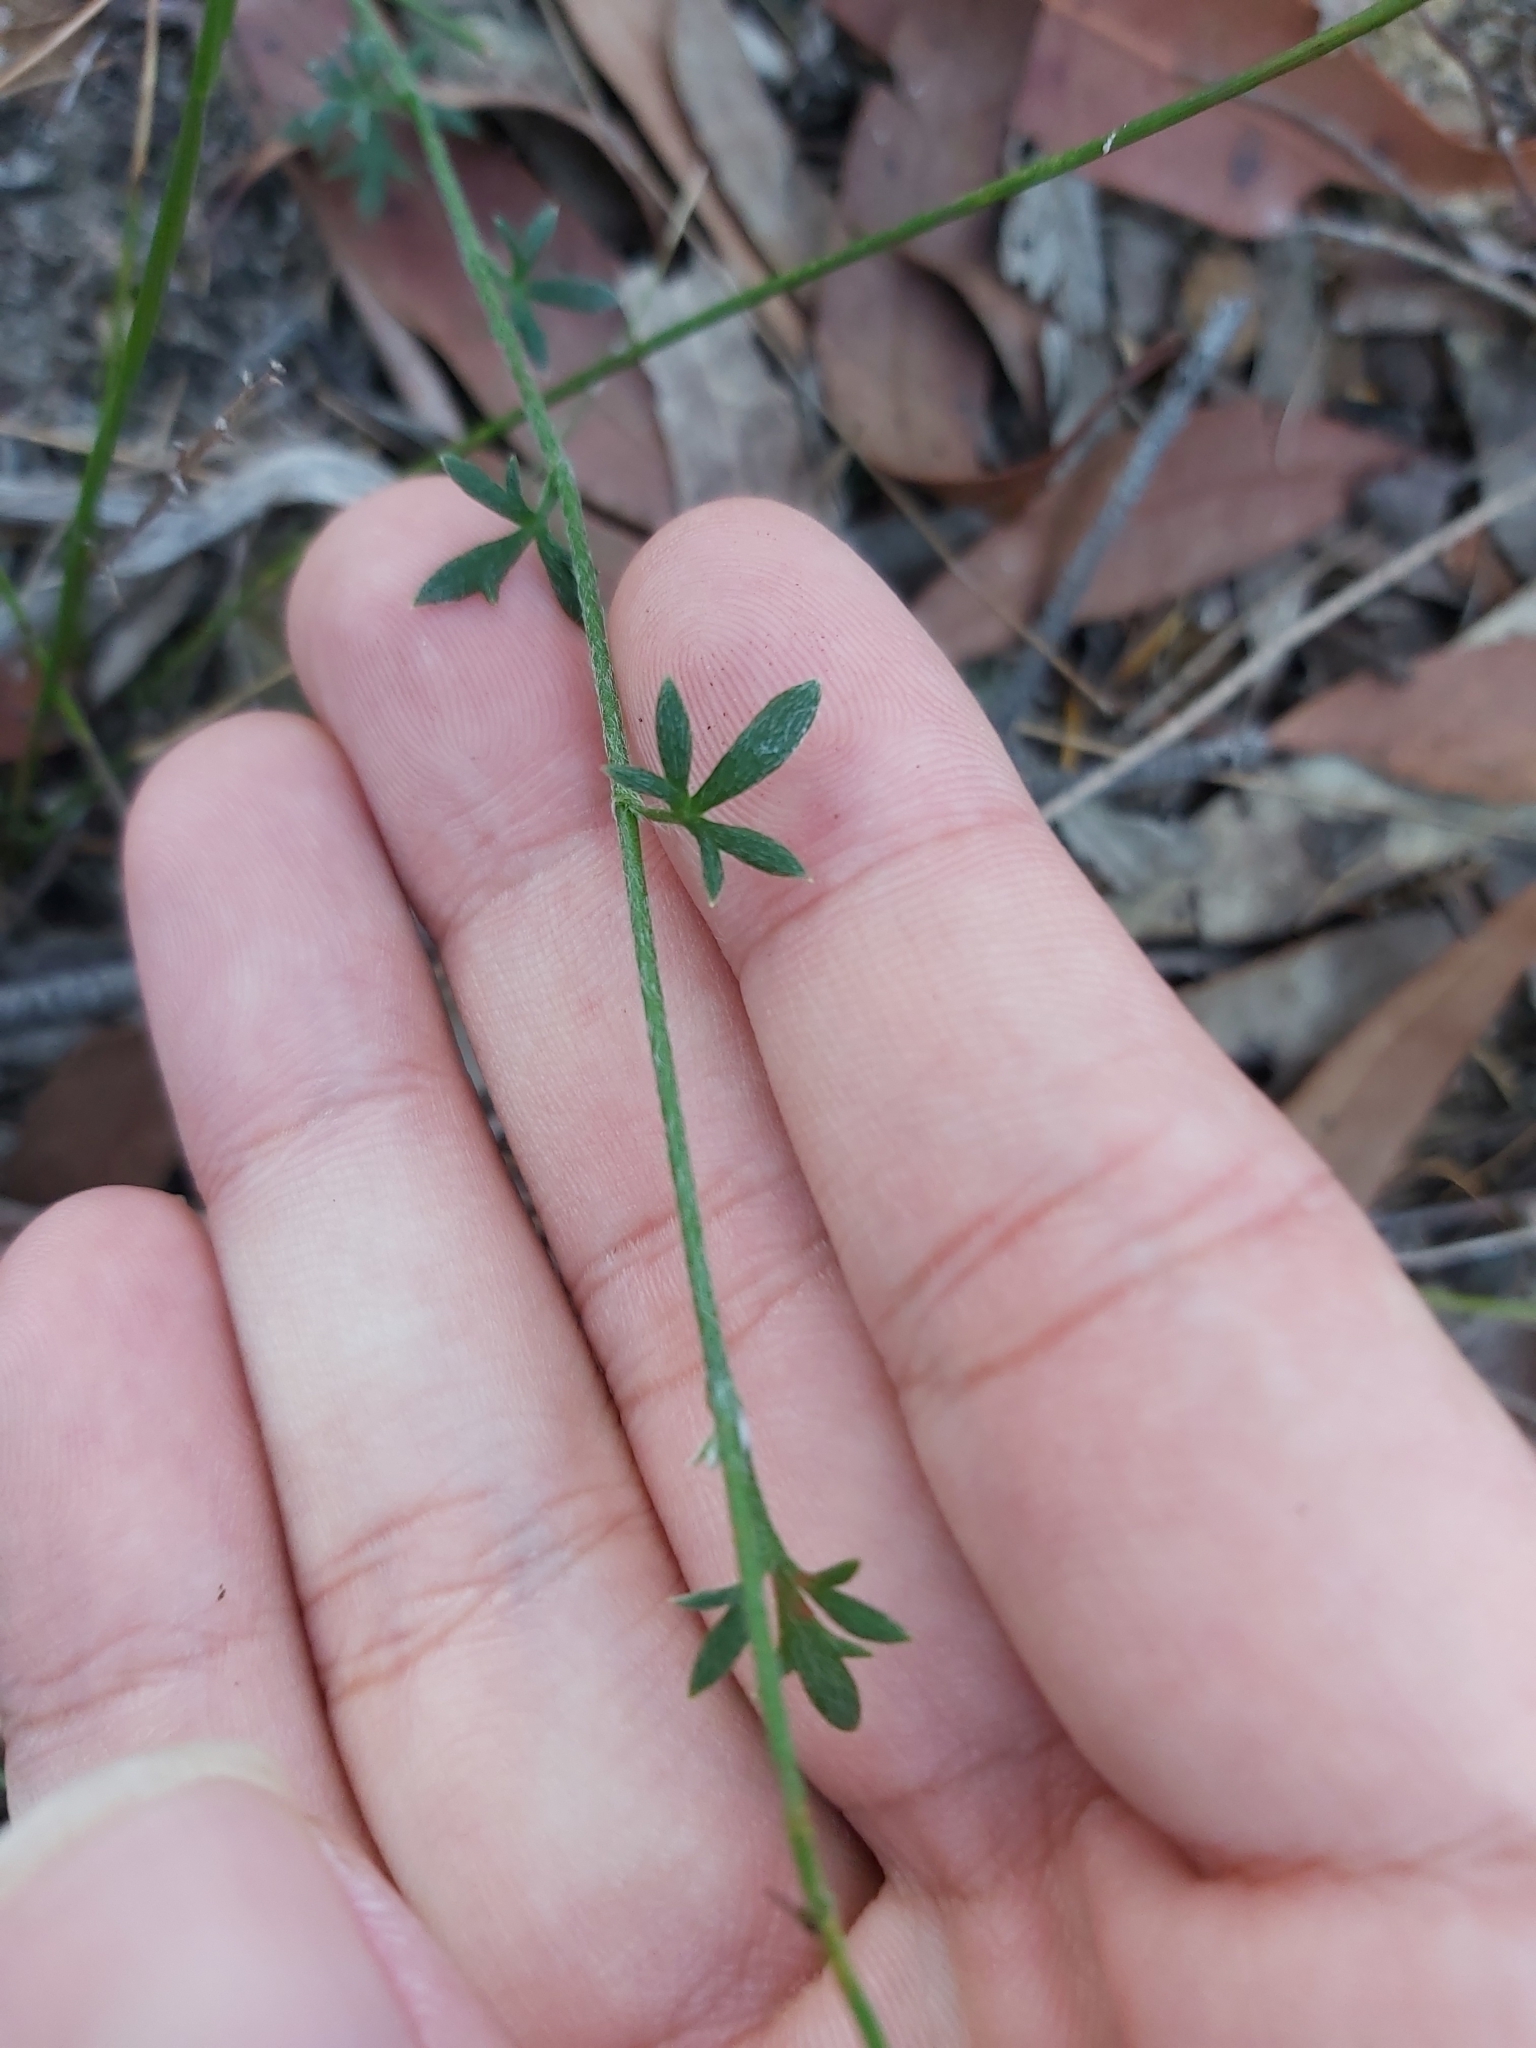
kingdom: Plantae
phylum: Tracheophyta
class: Magnoliopsida
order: Apiales
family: Apiaceae
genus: Actinotus
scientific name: Actinotus minor
